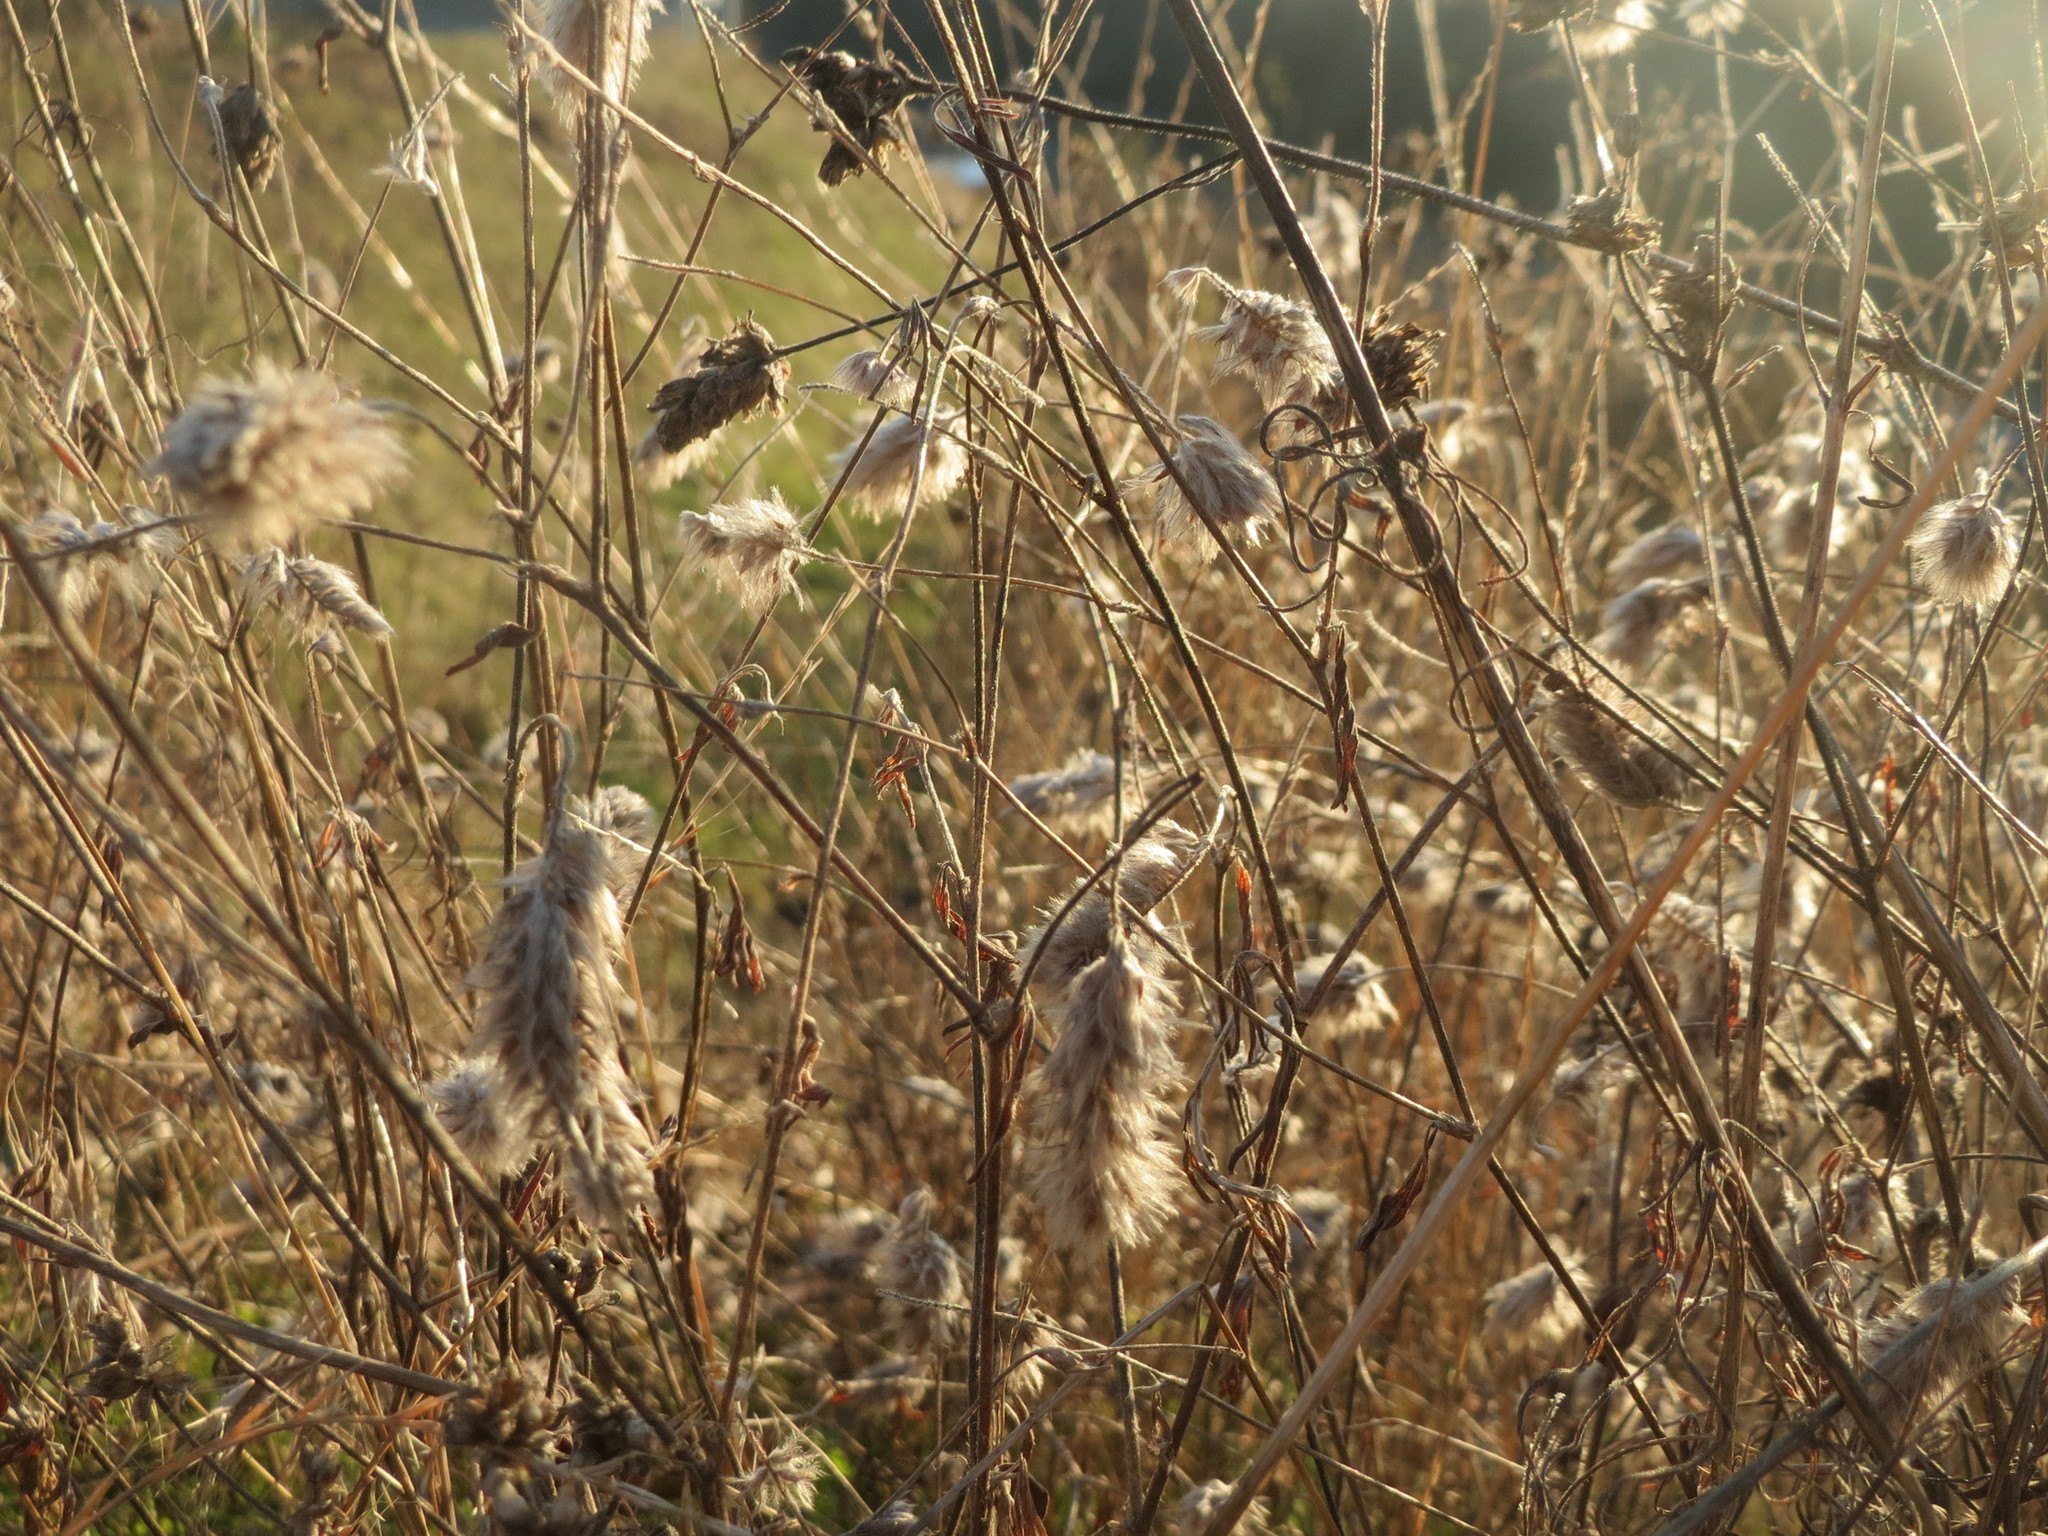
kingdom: Plantae
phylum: Tracheophyta
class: Magnoliopsida
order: Fabales
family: Fabaceae
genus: Trifolium
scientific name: Trifolium arvense
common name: Hare's-foot clover
